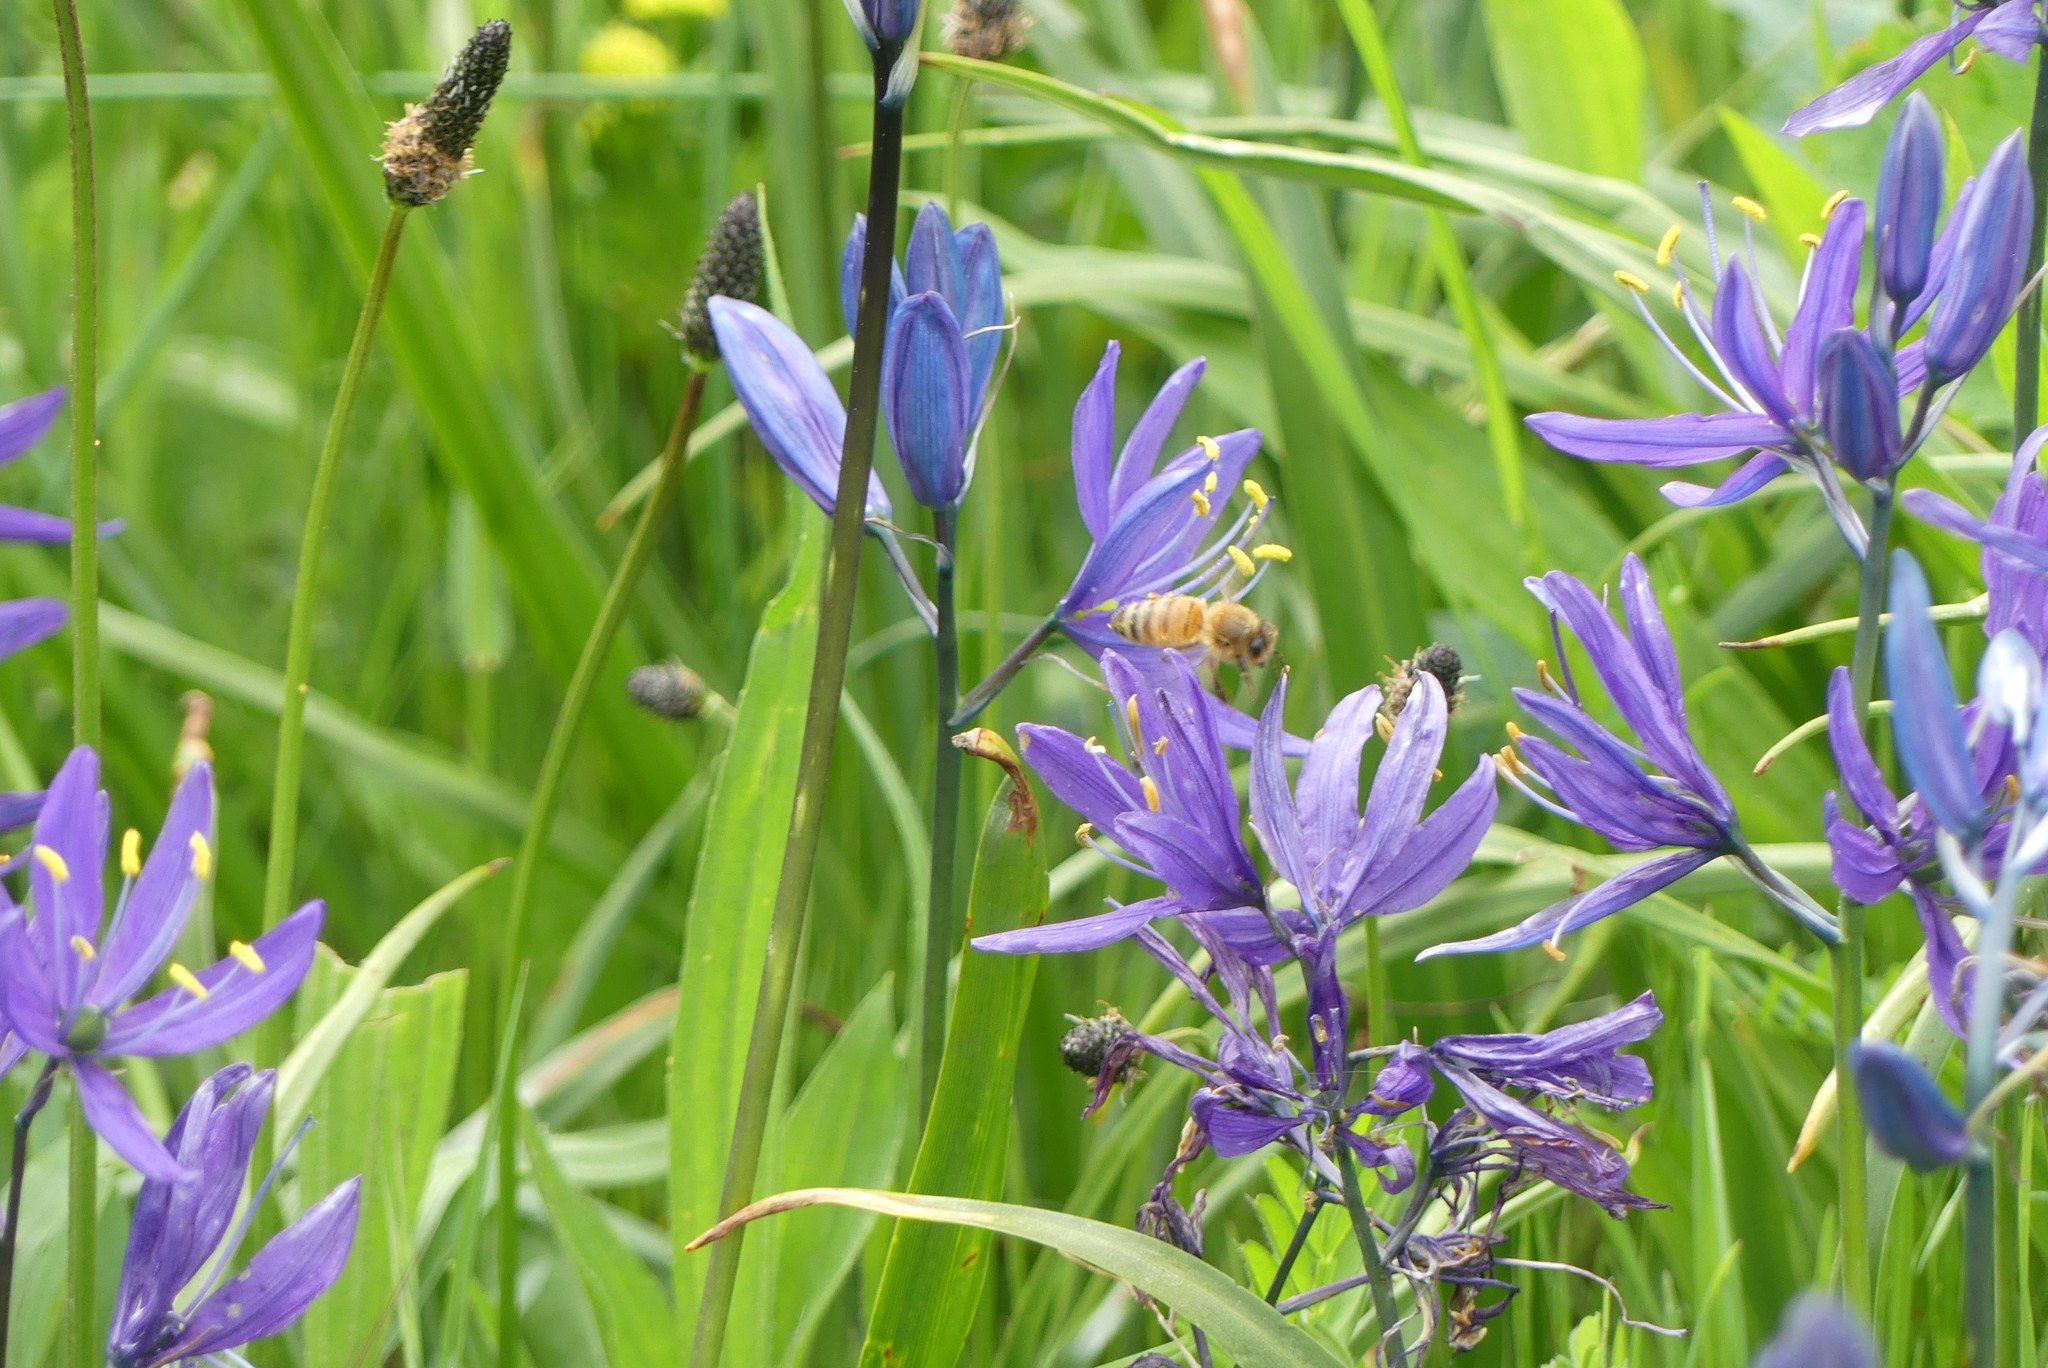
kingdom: Animalia
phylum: Arthropoda
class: Insecta
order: Hymenoptera
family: Apidae
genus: Apis
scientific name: Apis mellifera
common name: Honey bee
